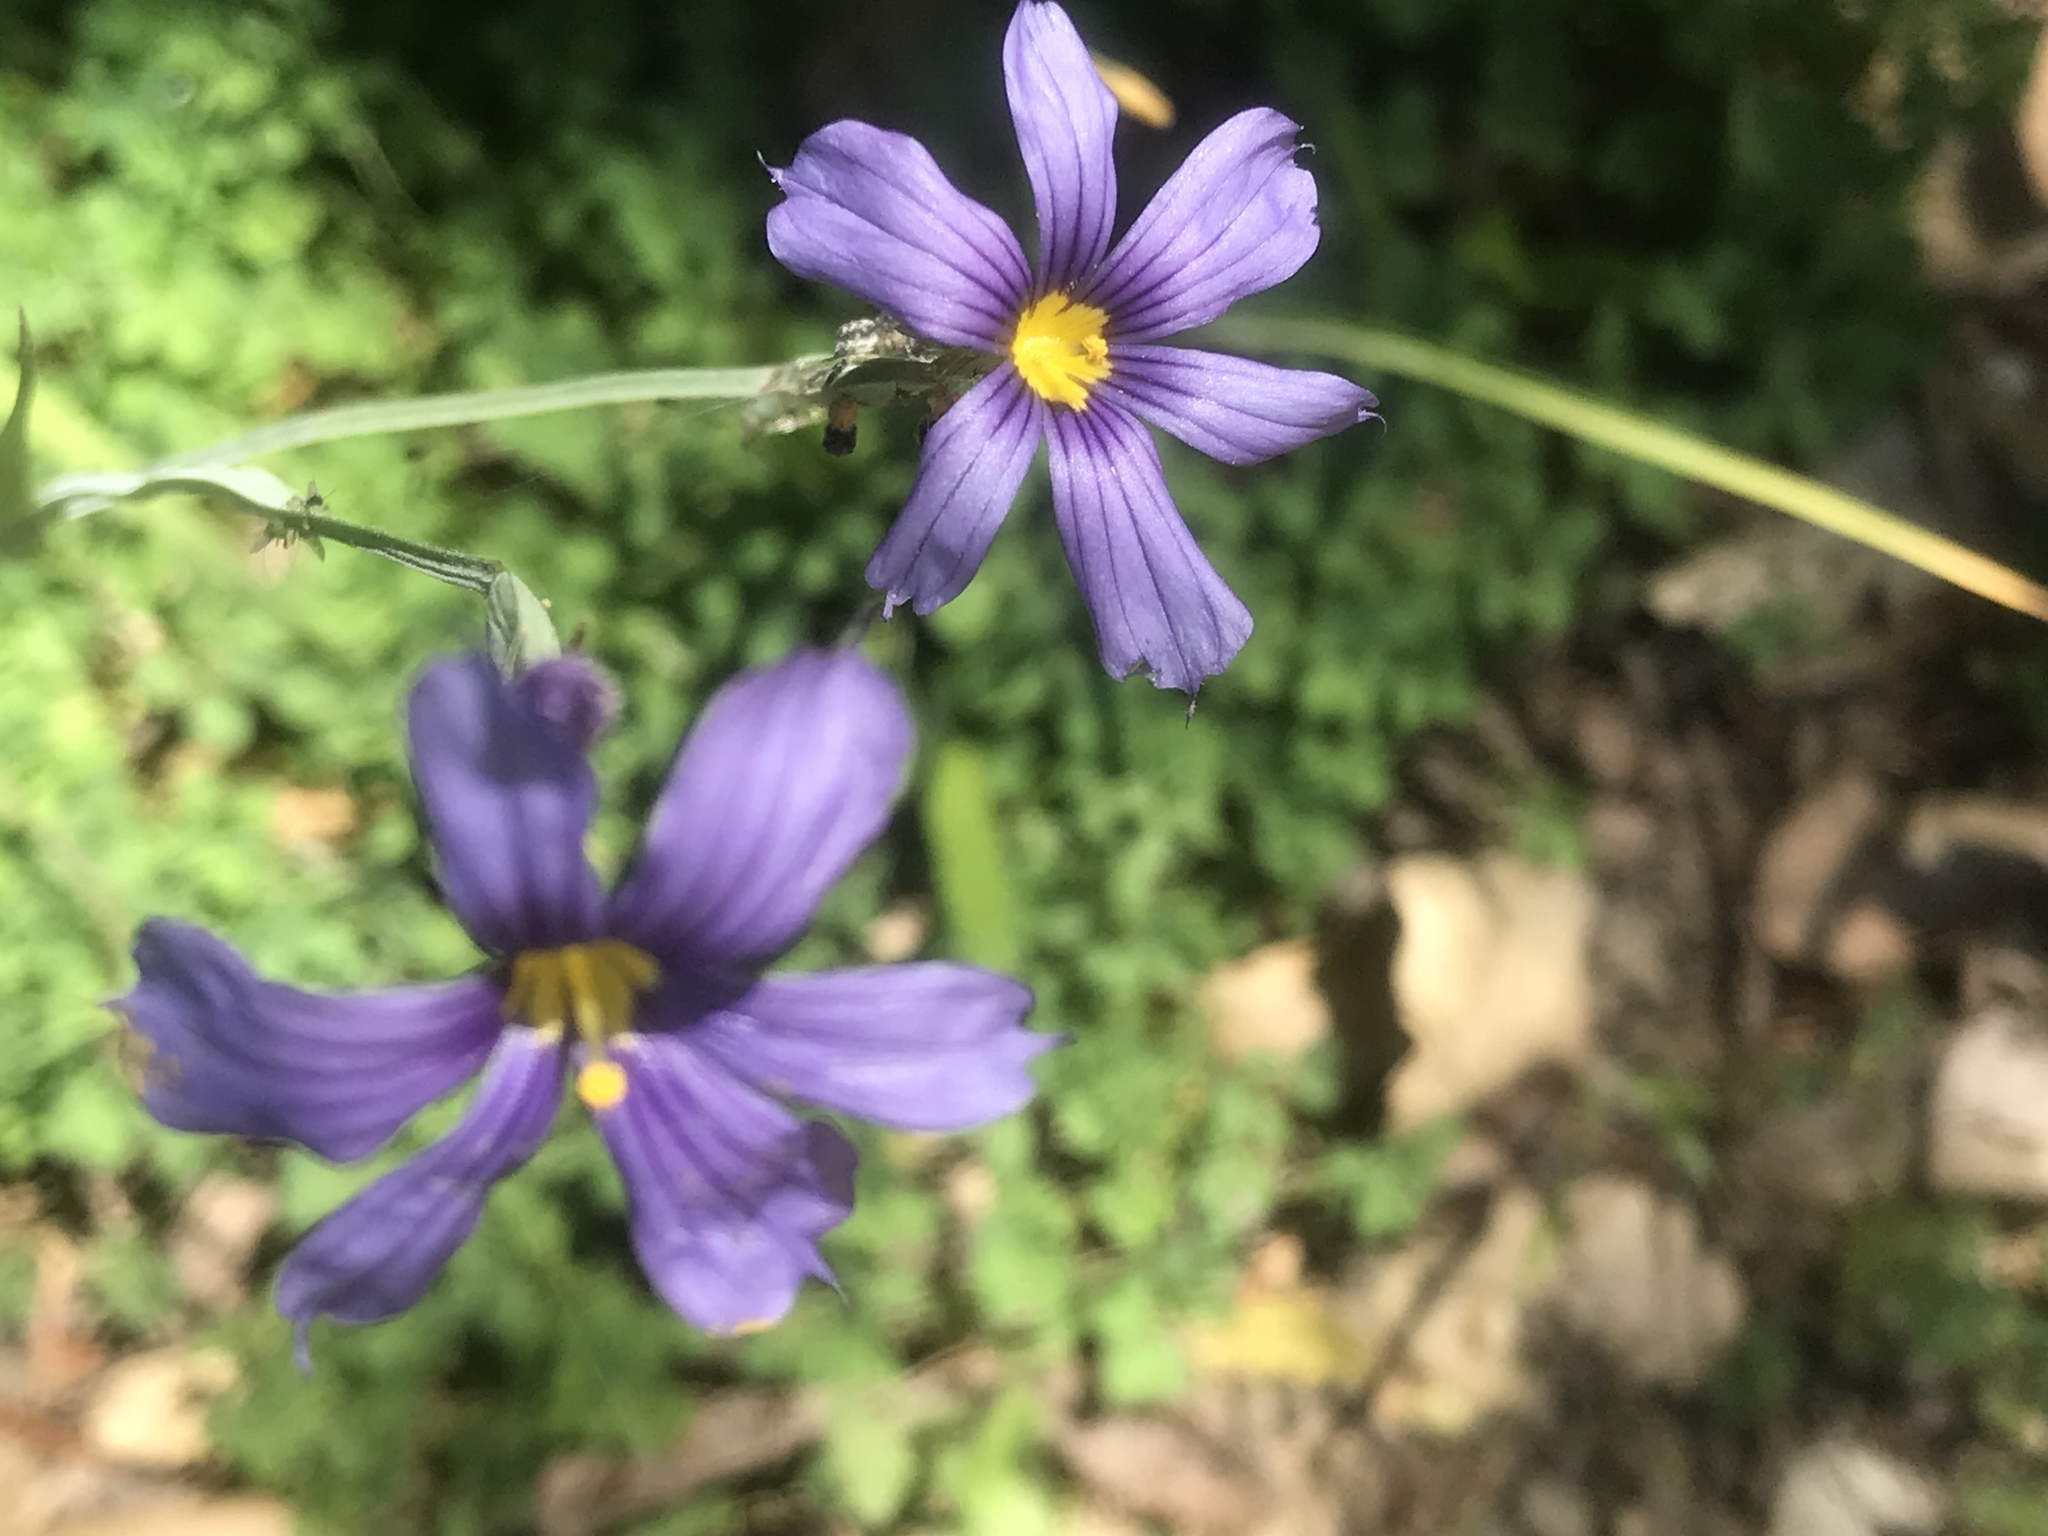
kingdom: Plantae
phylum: Tracheophyta
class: Liliopsida
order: Asparagales
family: Iridaceae
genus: Sisyrinchium
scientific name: Sisyrinchium bellum
